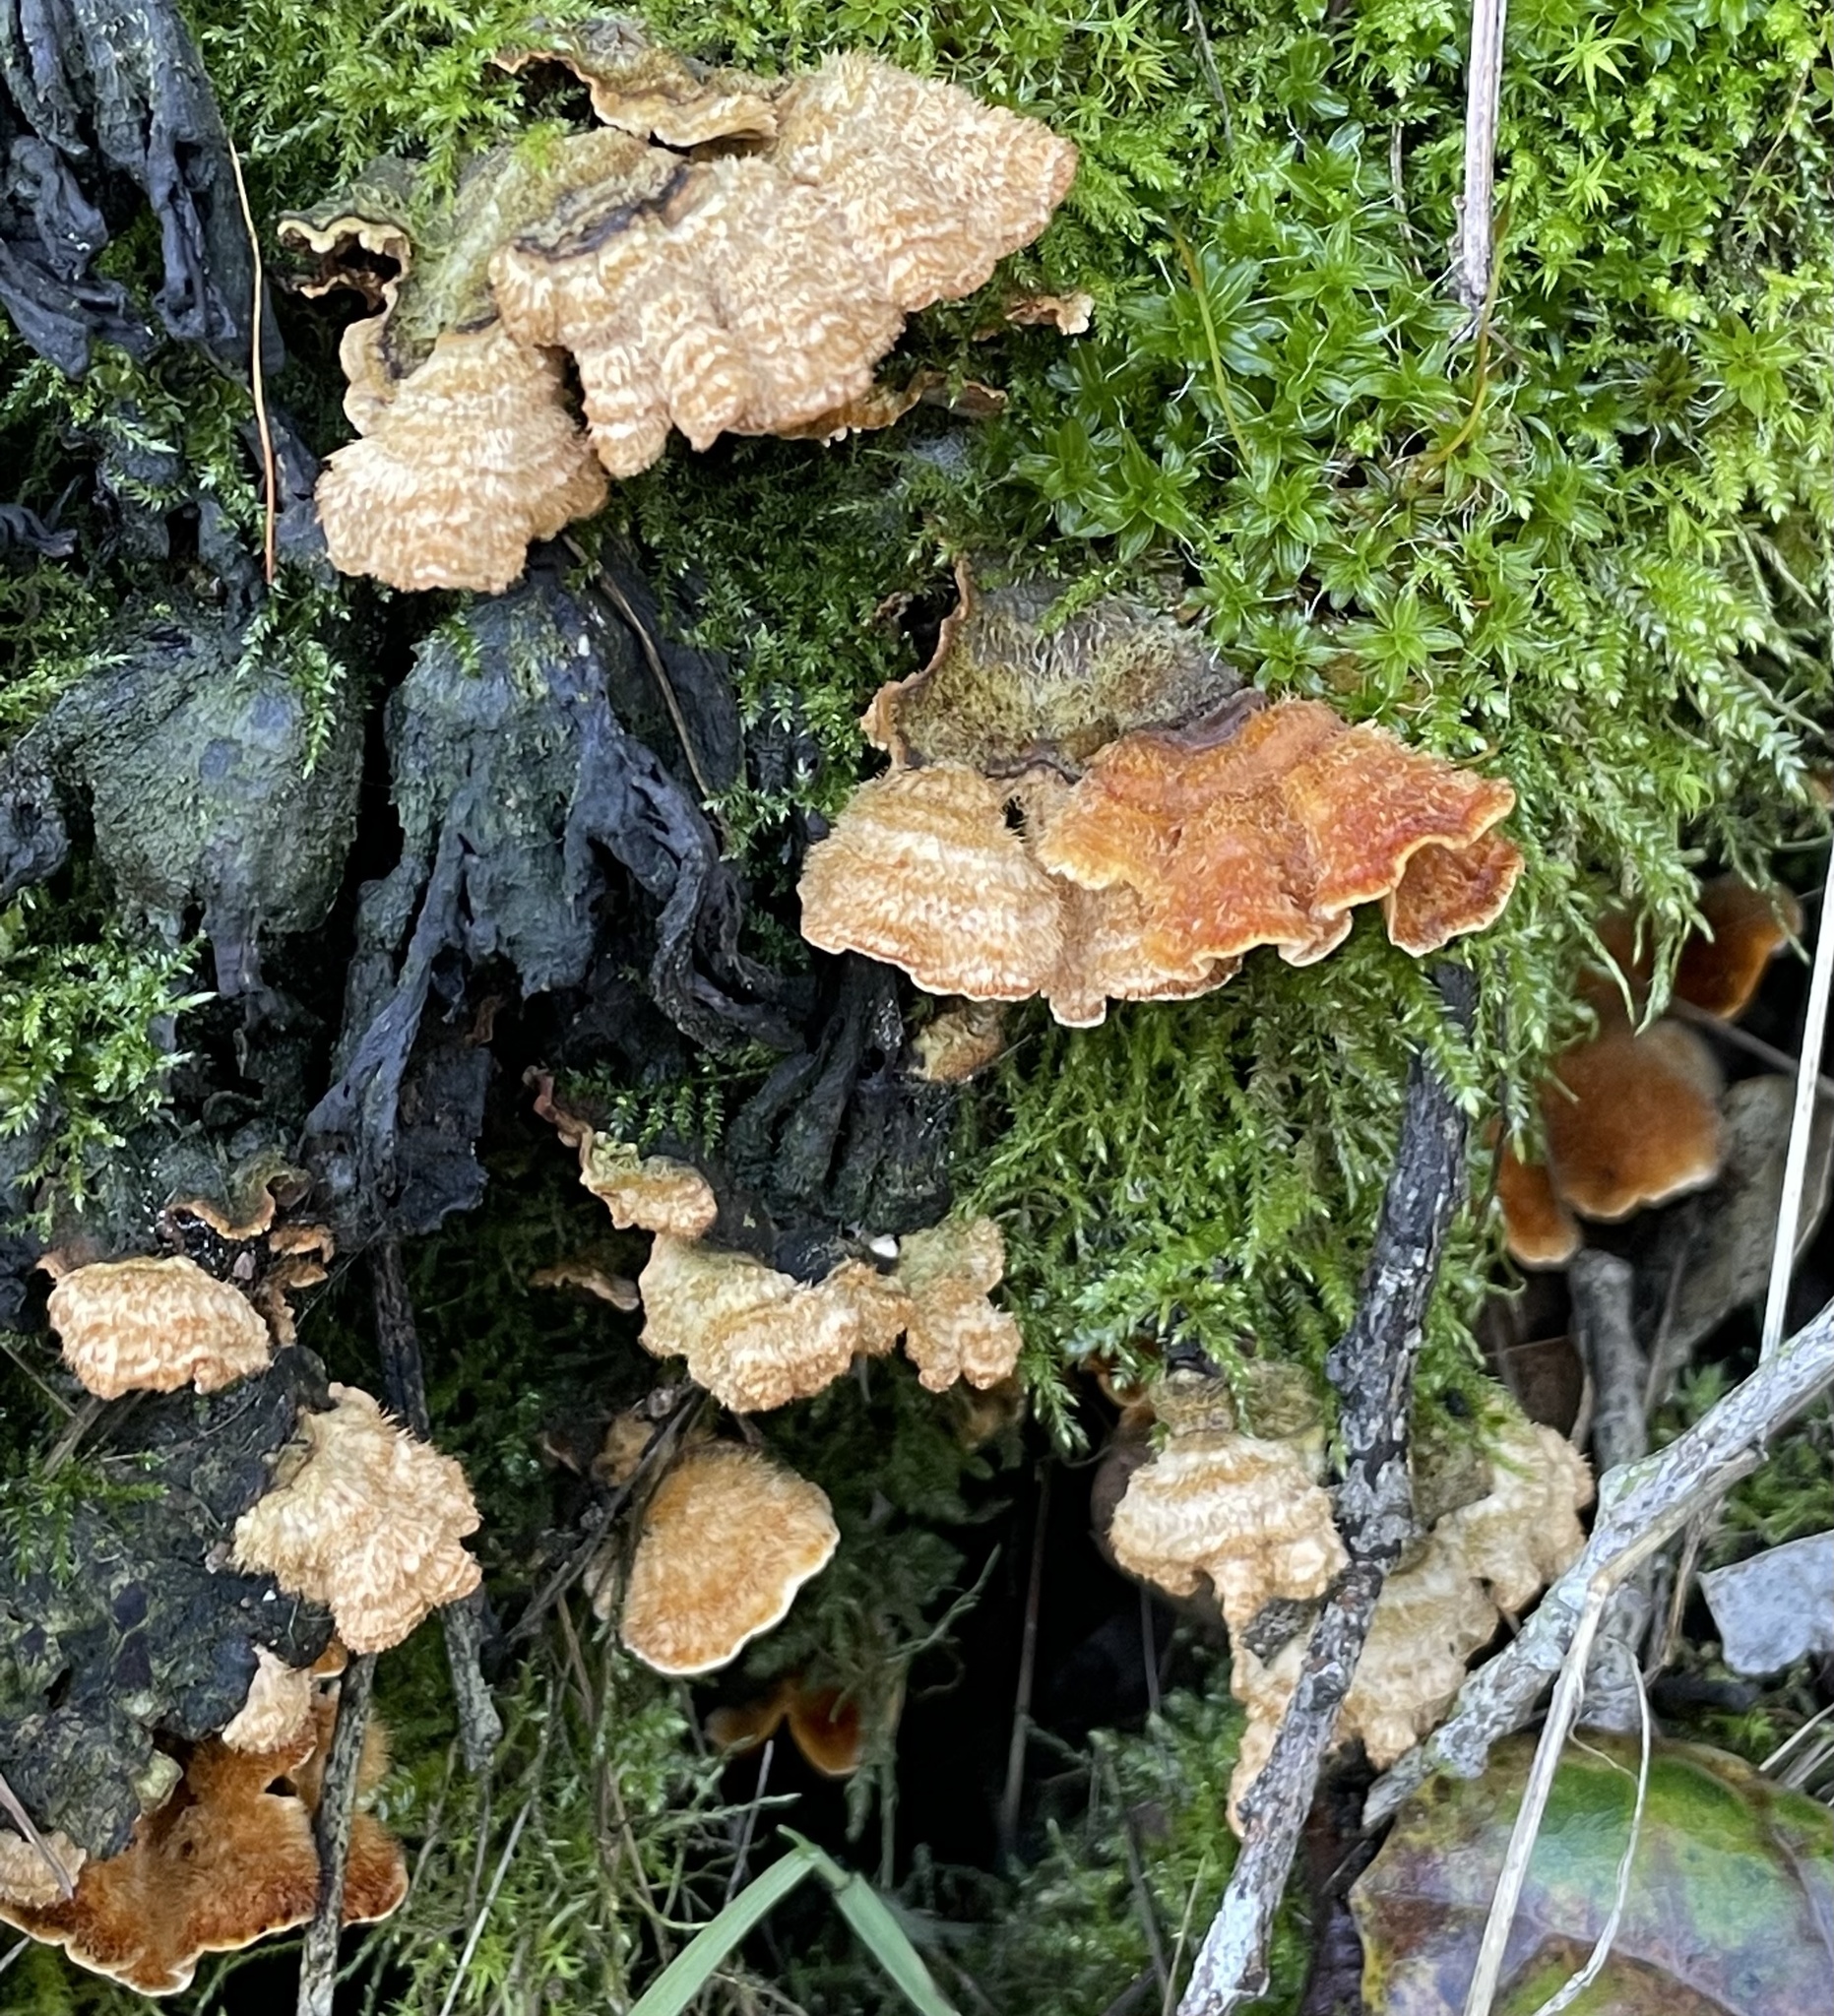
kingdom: Fungi
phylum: Basidiomycota
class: Agaricomycetes
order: Russulales
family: Stereaceae
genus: Stereum
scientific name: Stereum hirsutum
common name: Hairy curtain crust
